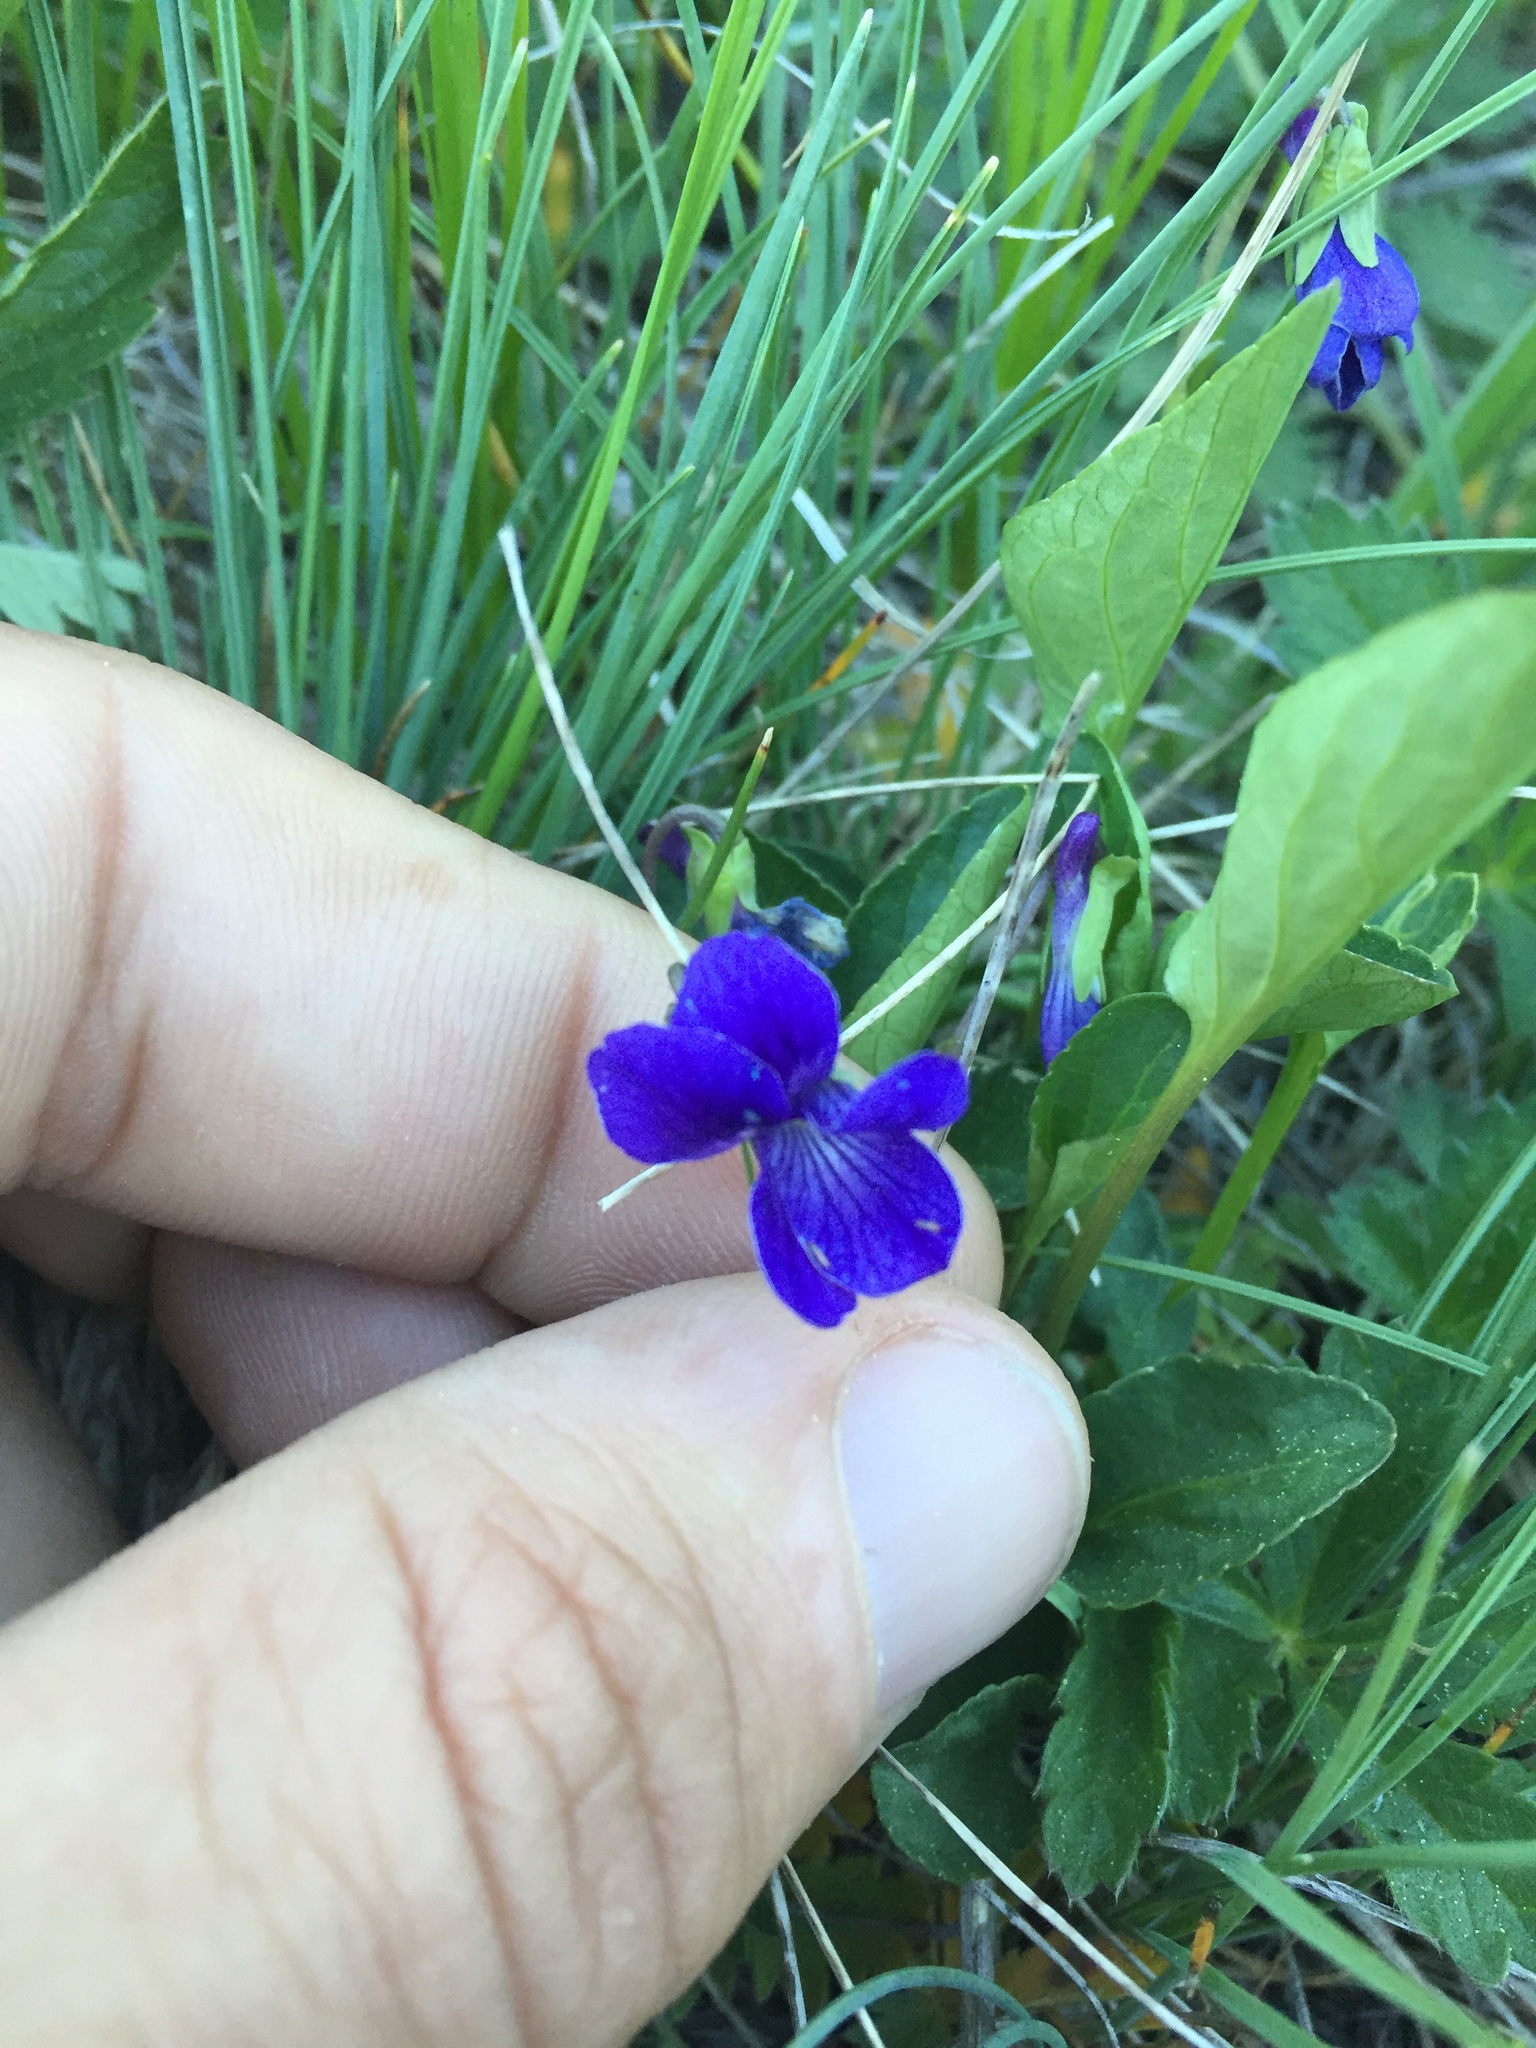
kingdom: Plantae
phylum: Tracheophyta
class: Magnoliopsida
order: Malpighiales
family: Violaceae
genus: Viola
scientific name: Viola adunca
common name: Sand violet
